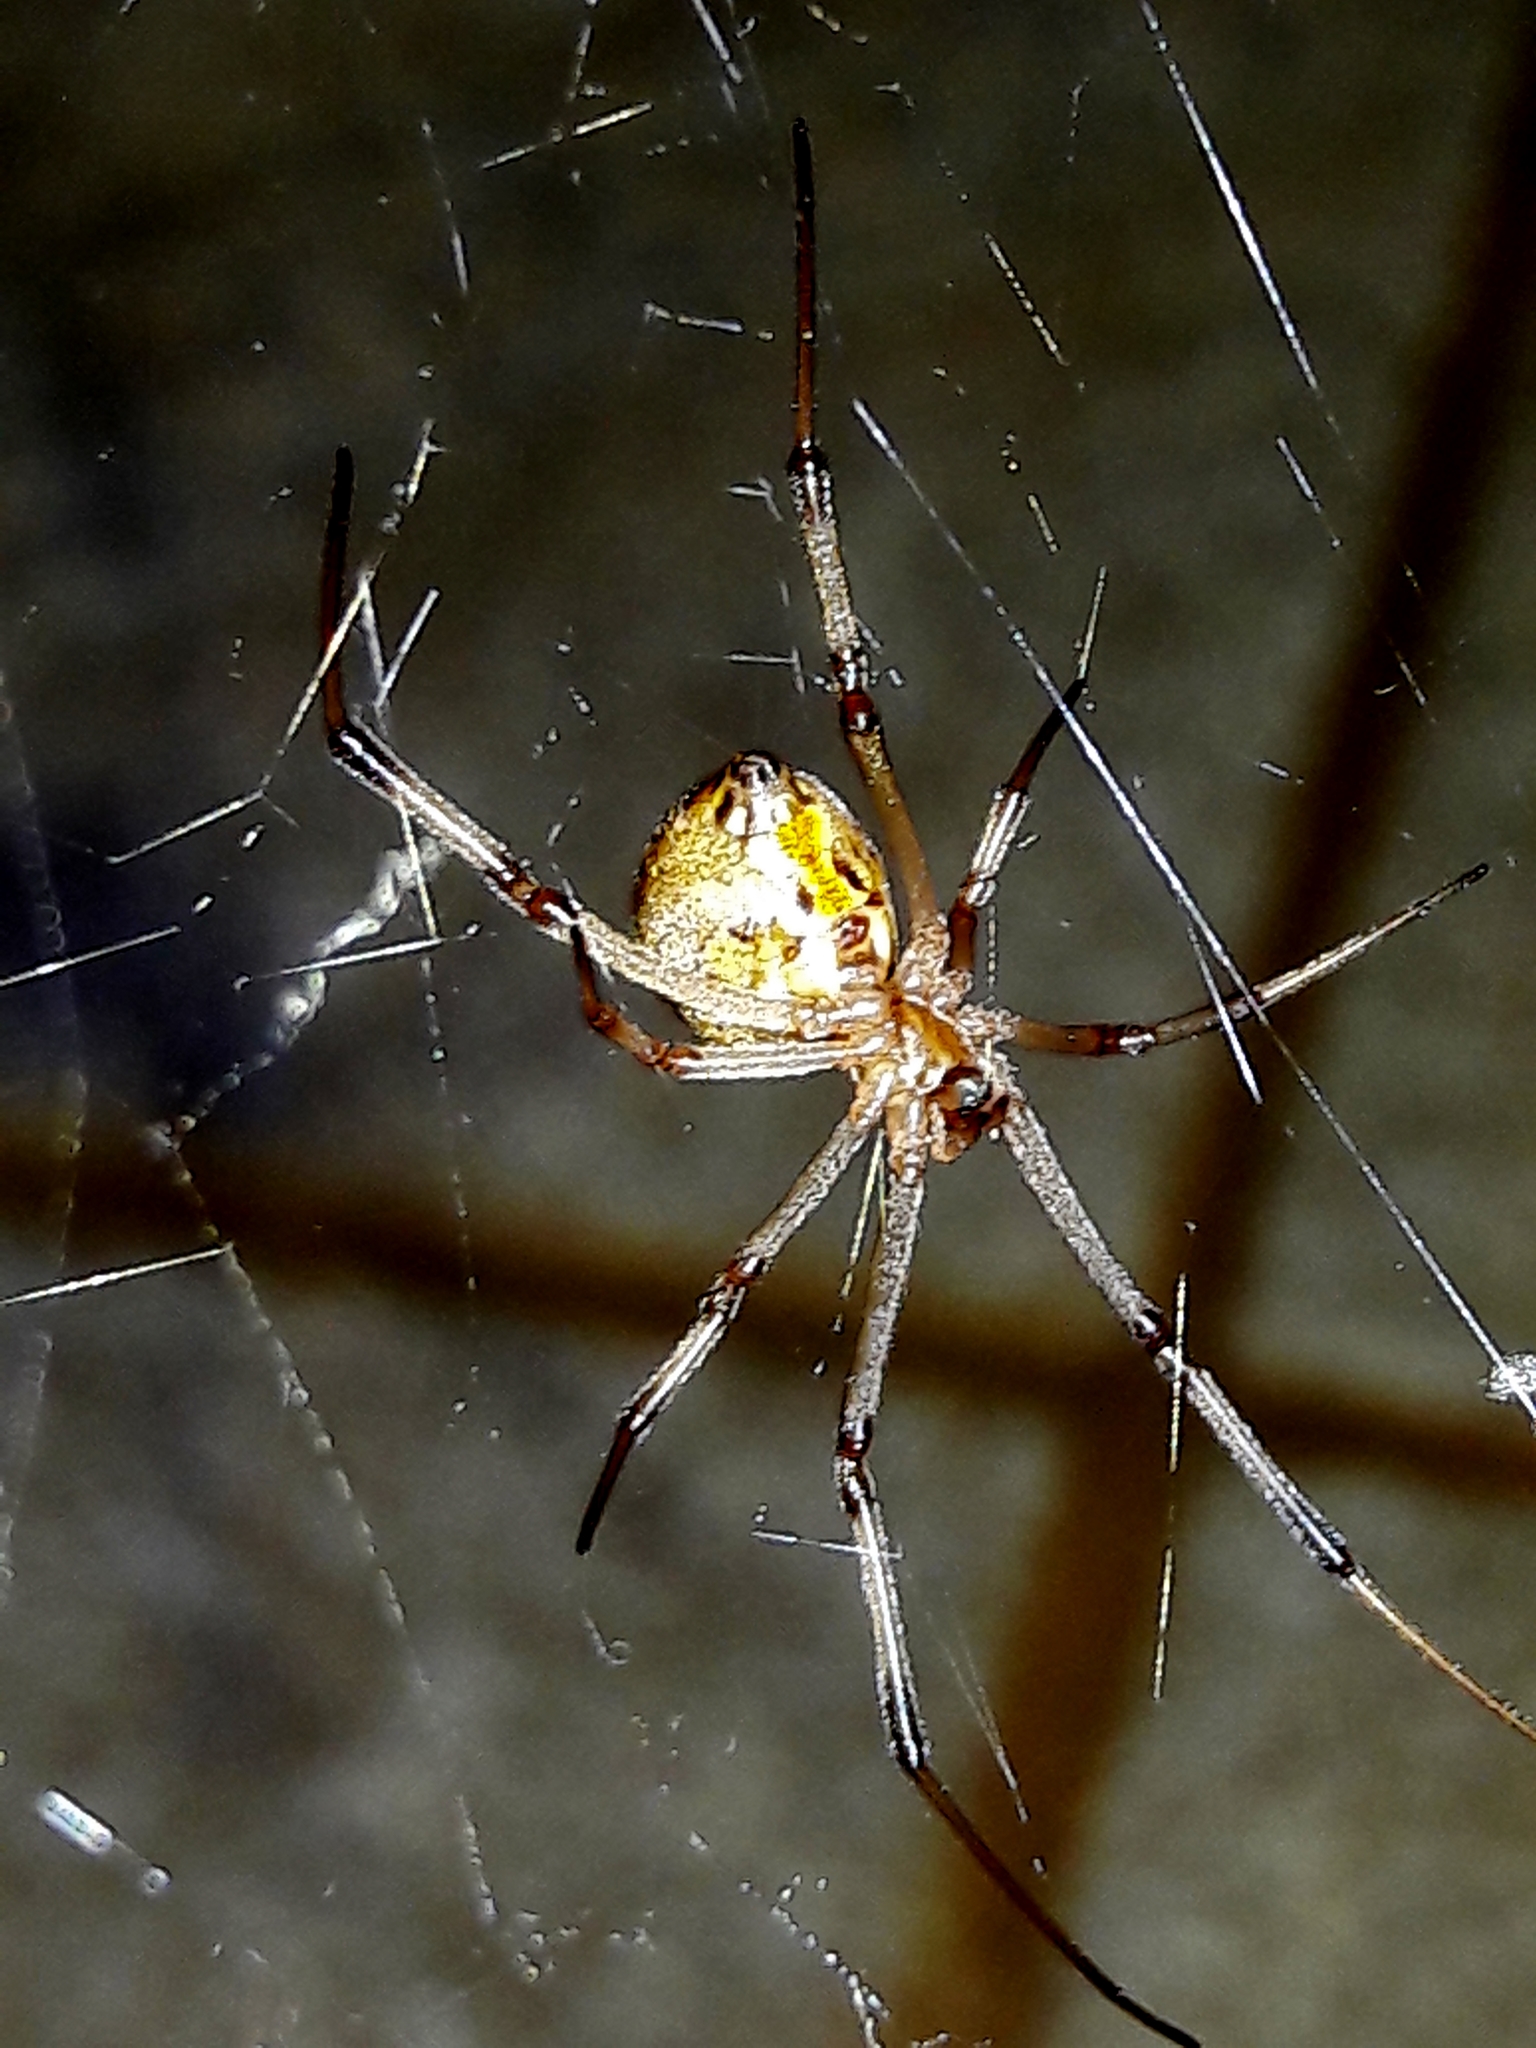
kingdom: Animalia
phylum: Arthropoda
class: Arachnida
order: Araneae
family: Theridiidae
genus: Latrodectus
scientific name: Latrodectus geometricus
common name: Brown widow spider
